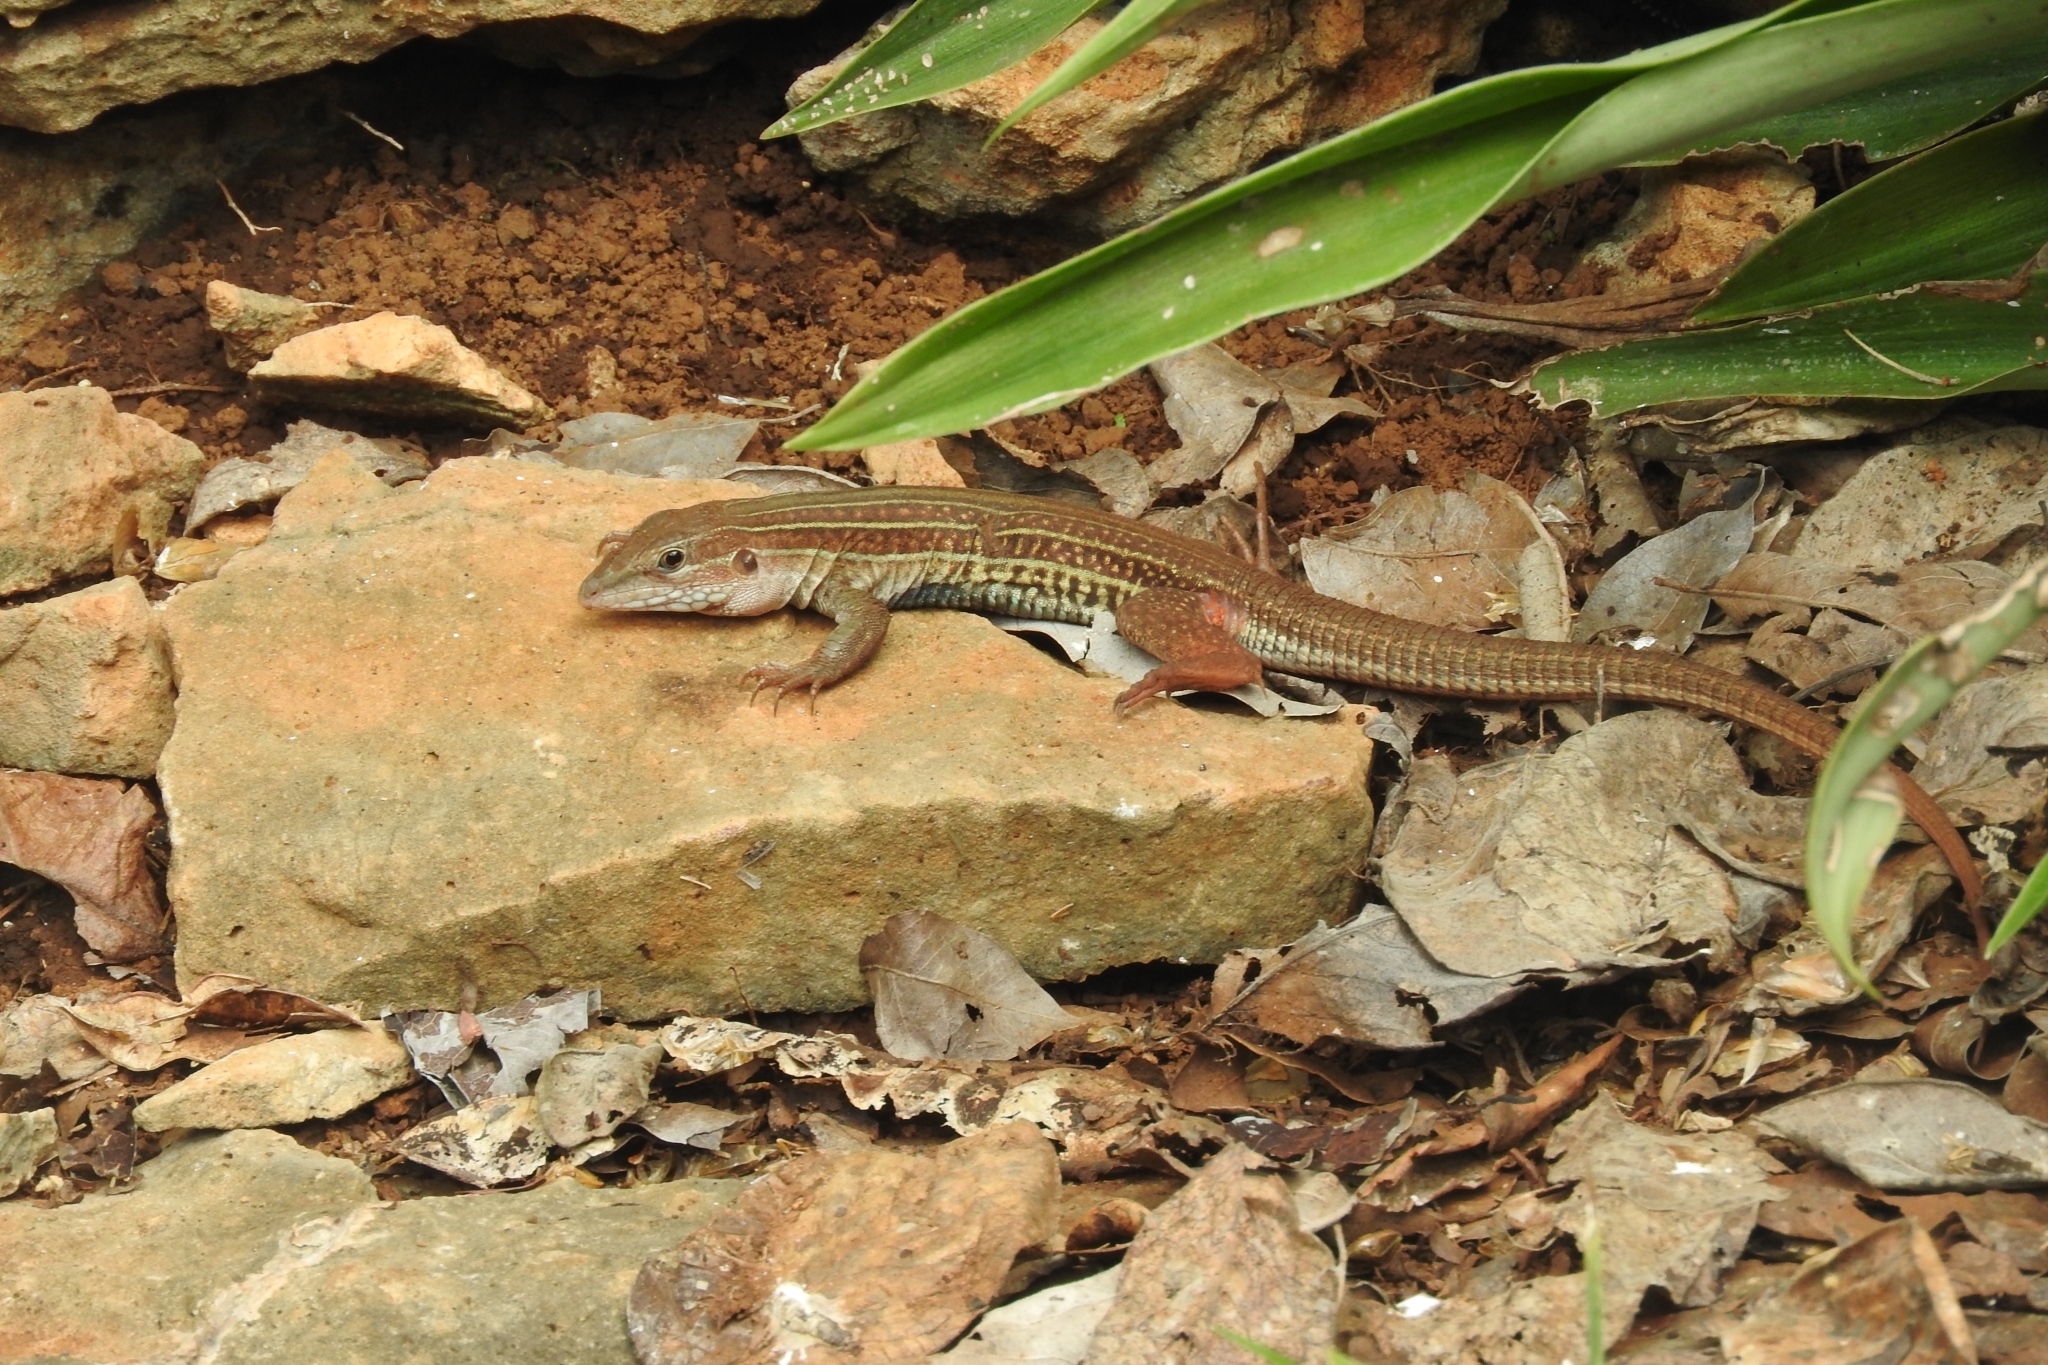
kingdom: Animalia
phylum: Chordata
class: Squamata
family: Teiidae
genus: Aspidoscelis
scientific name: Aspidoscelis angusticeps
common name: Yucatan whiptail
